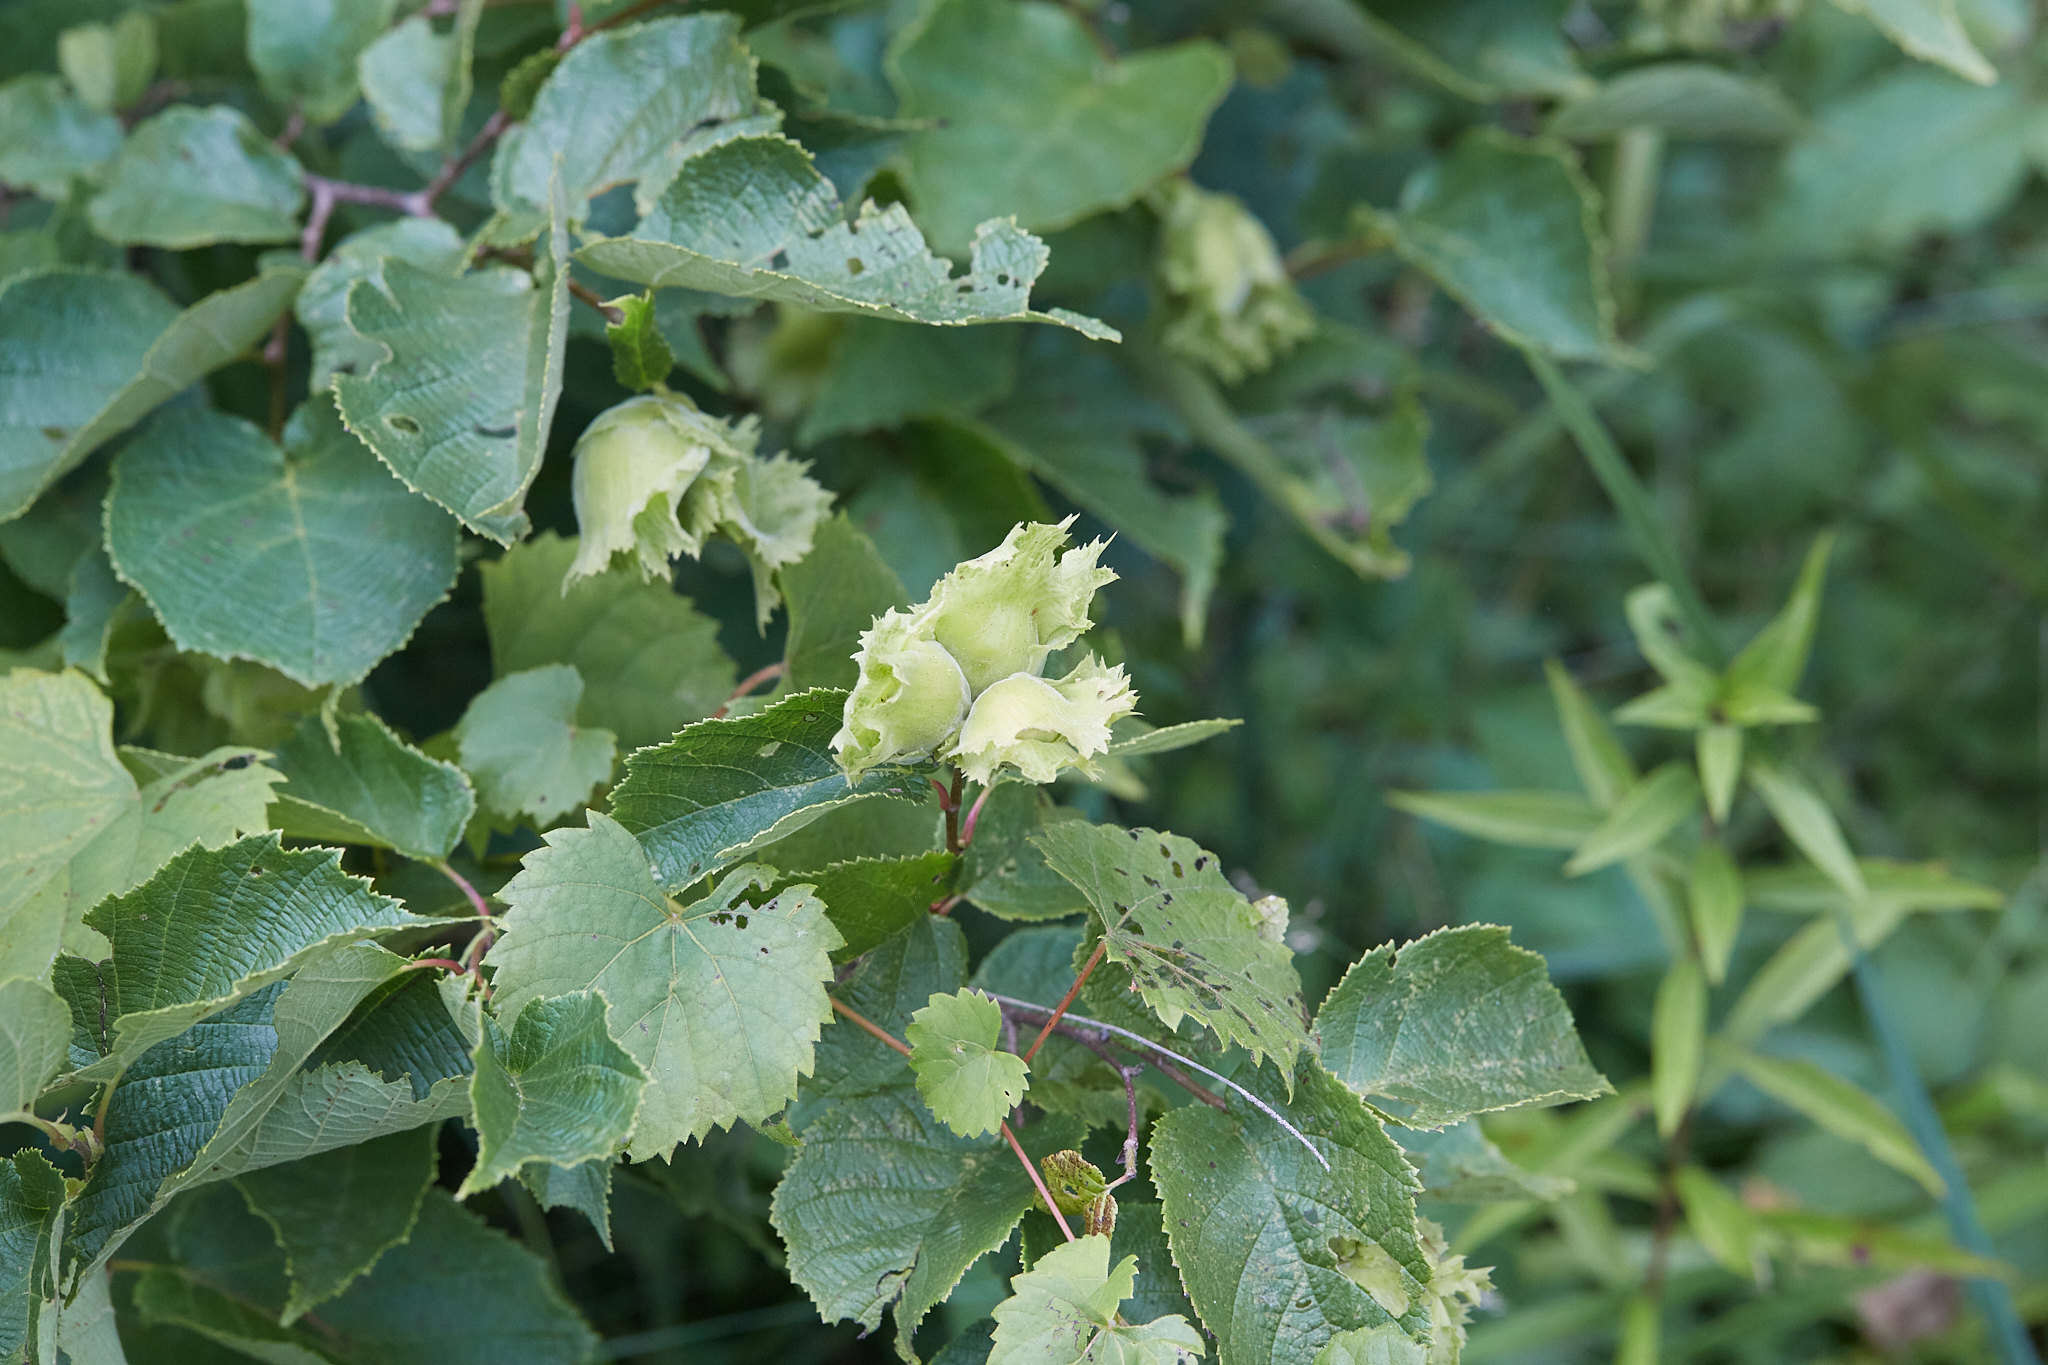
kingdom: Plantae
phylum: Tracheophyta
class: Magnoliopsida
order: Fagales
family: Betulaceae
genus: Corylus
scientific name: Corylus americana
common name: American hazel
